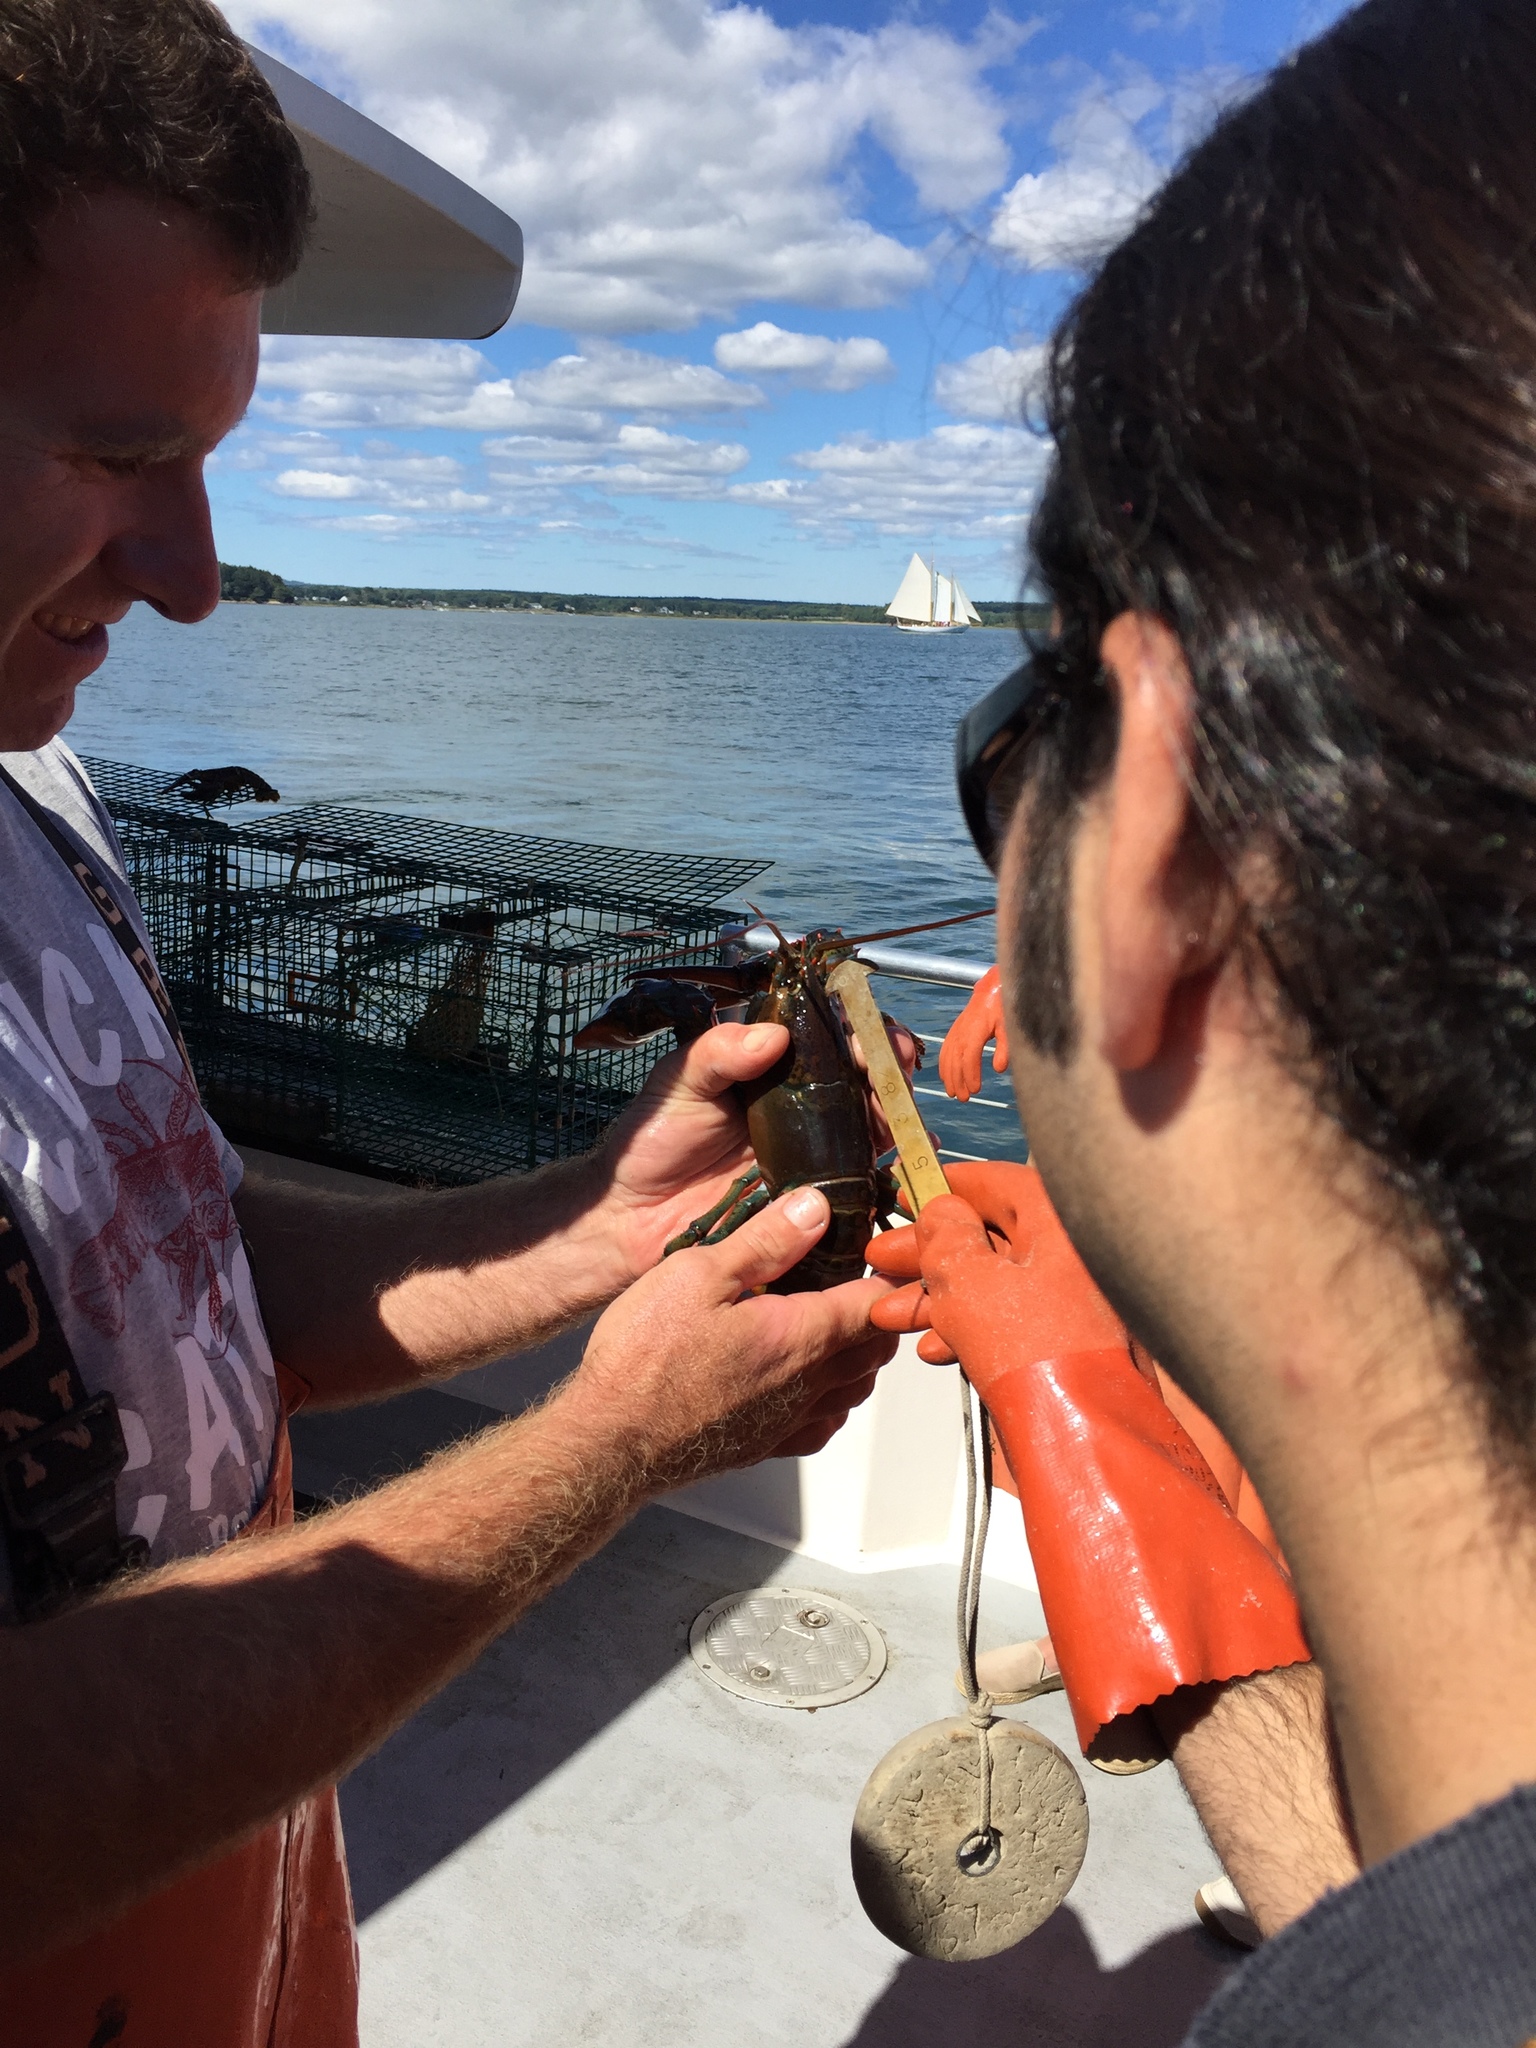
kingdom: Animalia
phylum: Arthropoda
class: Malacostraca
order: Decapoda
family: Nephropidae
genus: Homarus
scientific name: Homarus americanus
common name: American lobster
